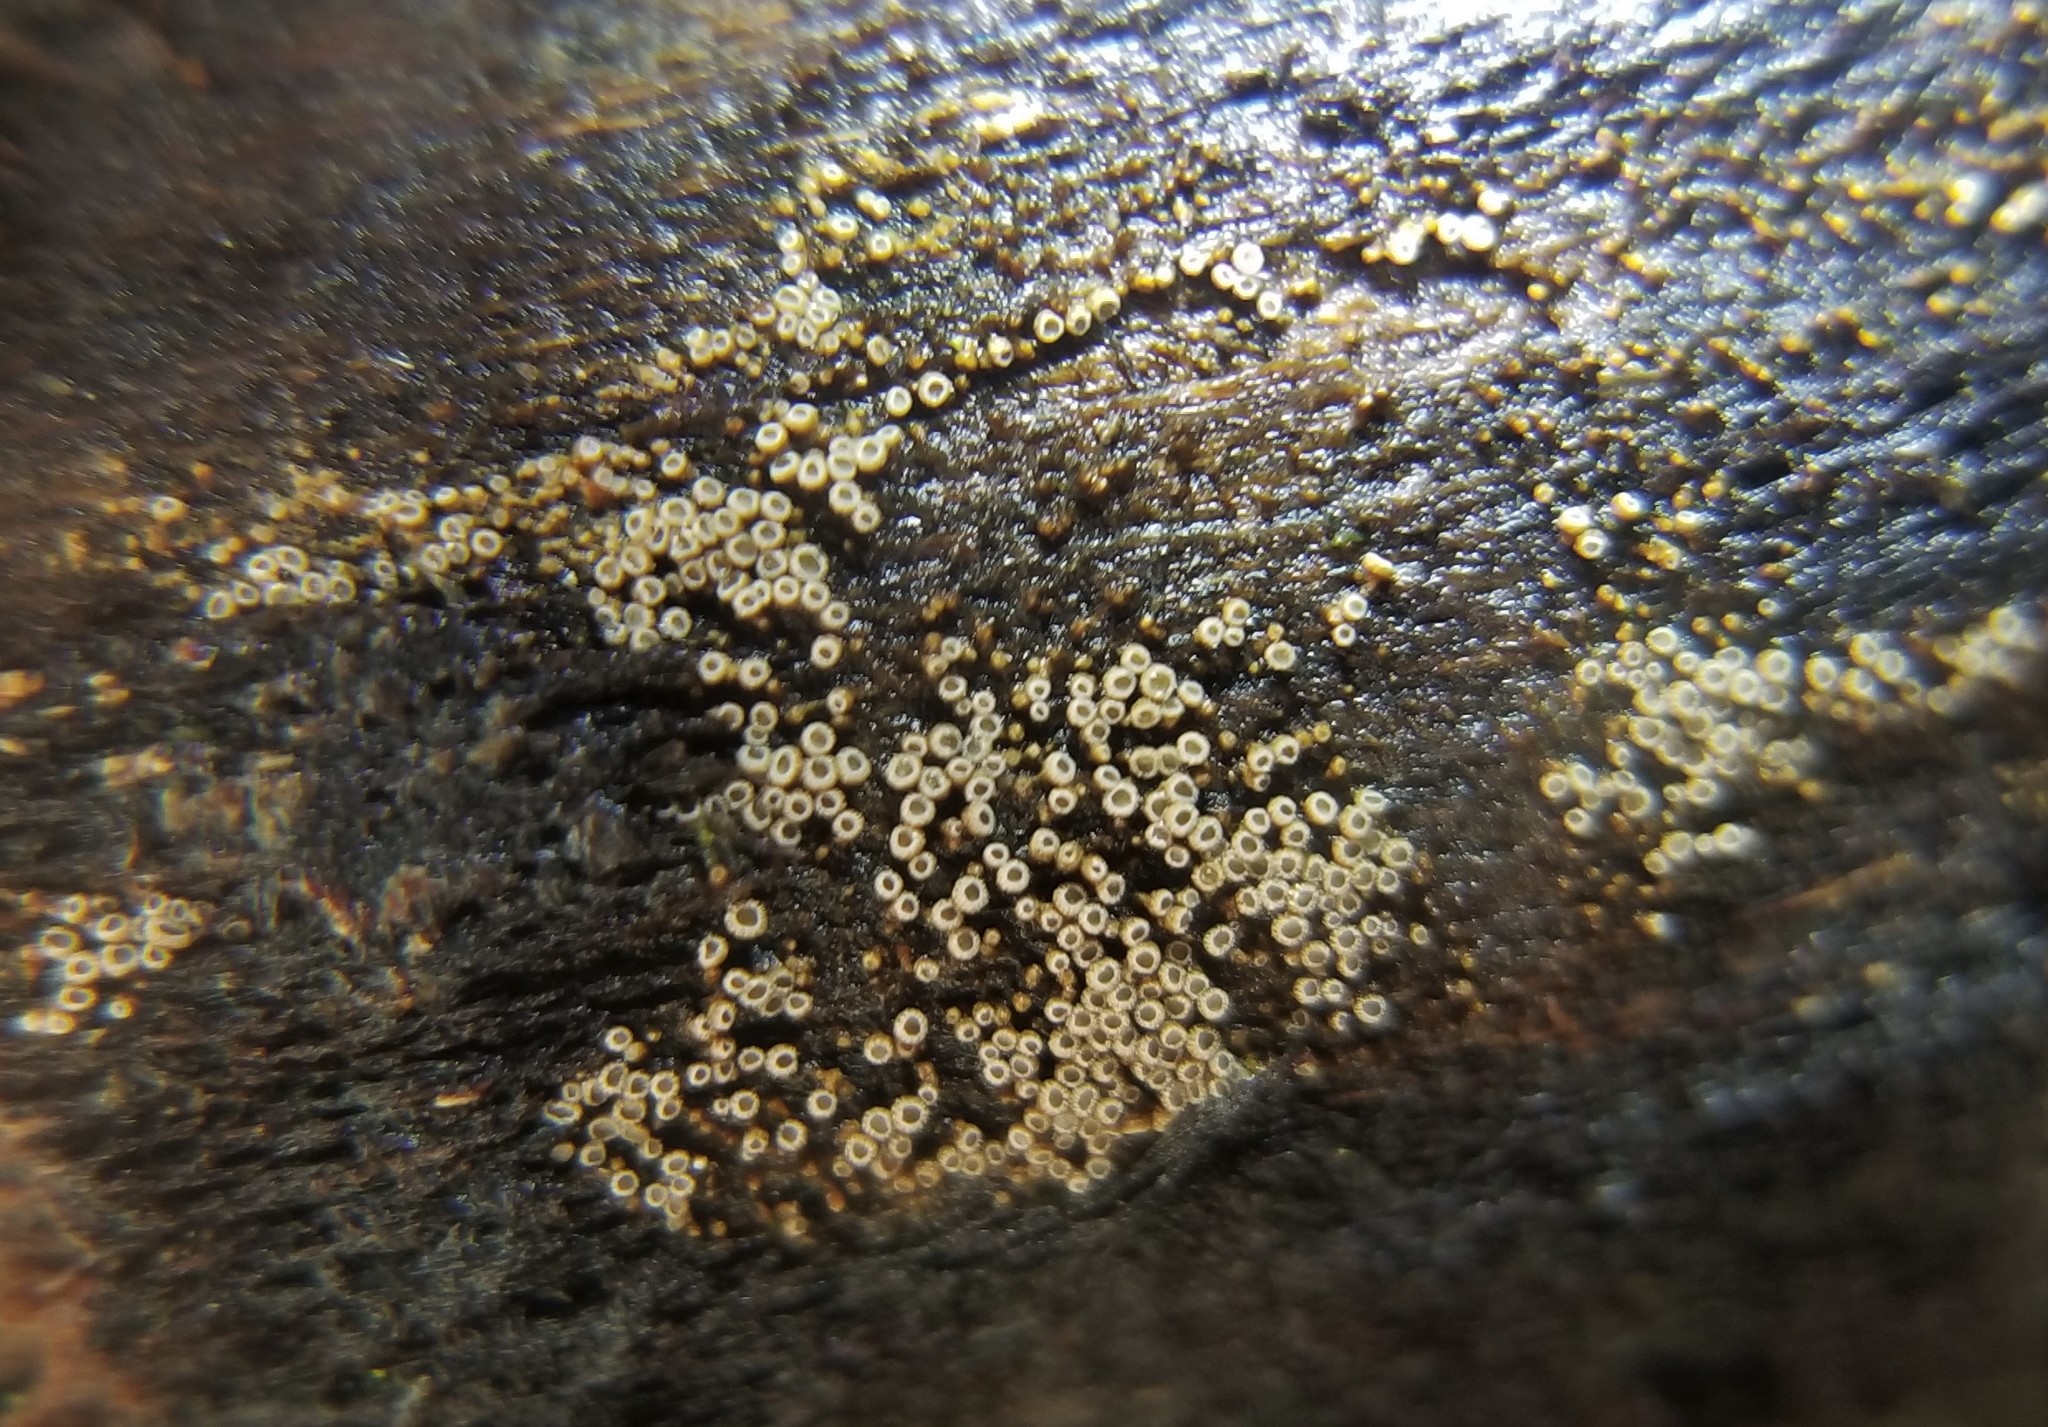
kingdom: Fungi
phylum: Basidiomycota
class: Agaricomycetes
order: Agaricales
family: Niaceae
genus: Merismodes
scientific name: Merismodes fasciculata
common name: Crowded cuplet
